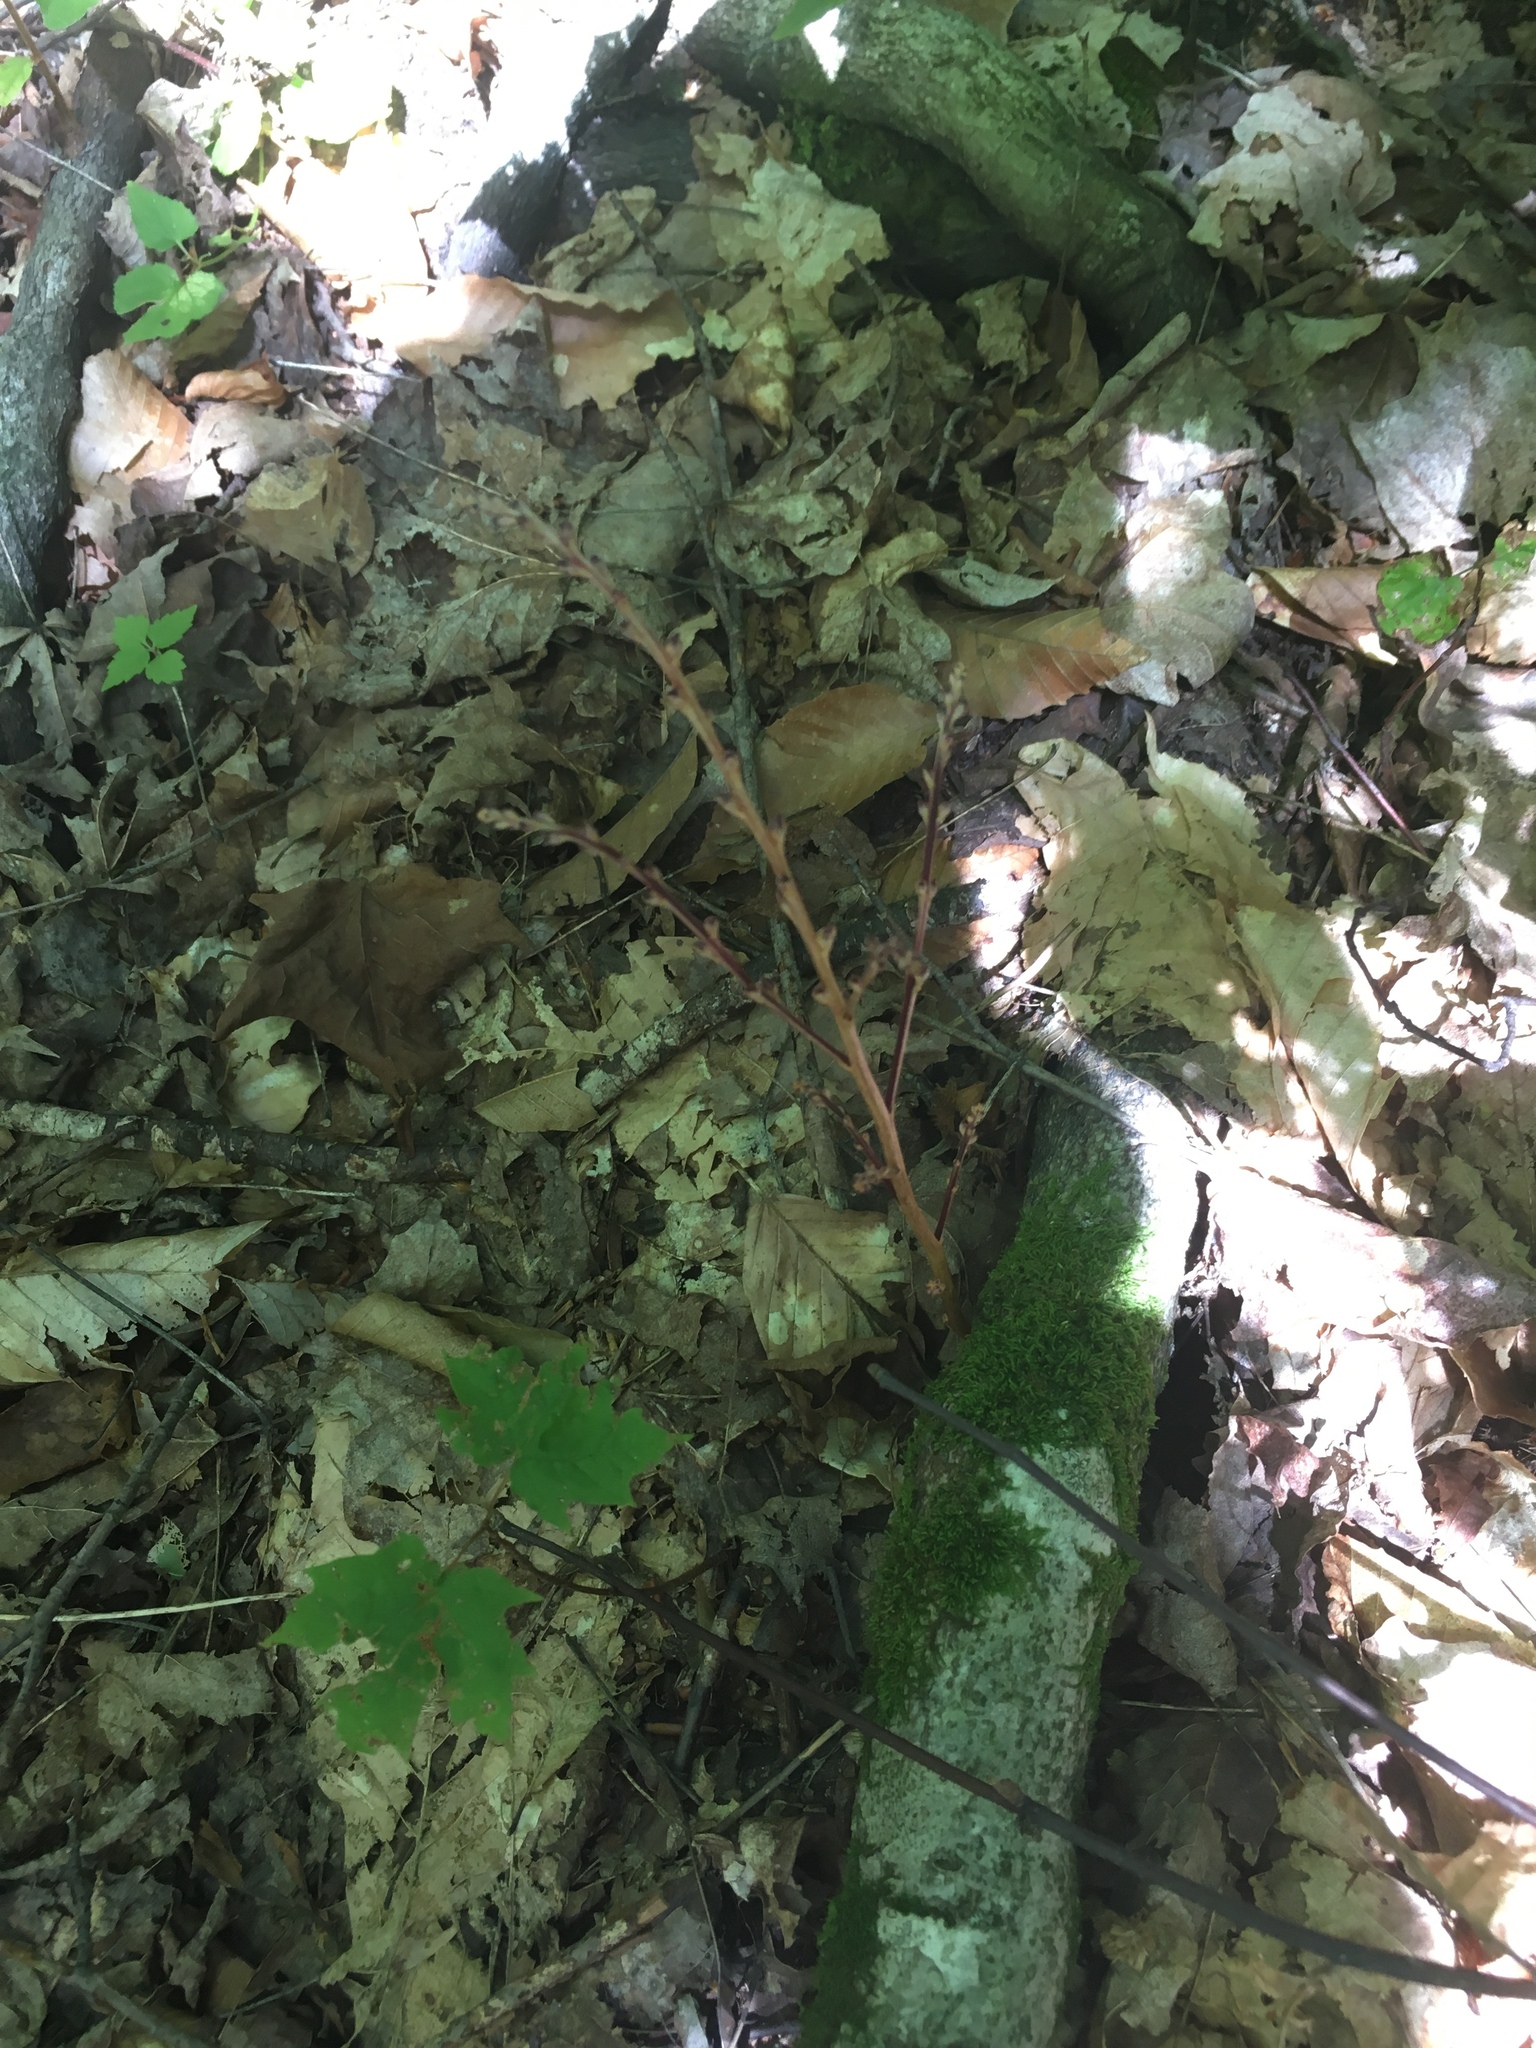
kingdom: Plantae
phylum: Tracheophyta
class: Magnoliopsida
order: Lamiales
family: Orobanchaceae
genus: Epifagus
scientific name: Epifagus virginiana
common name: Beechdrops
